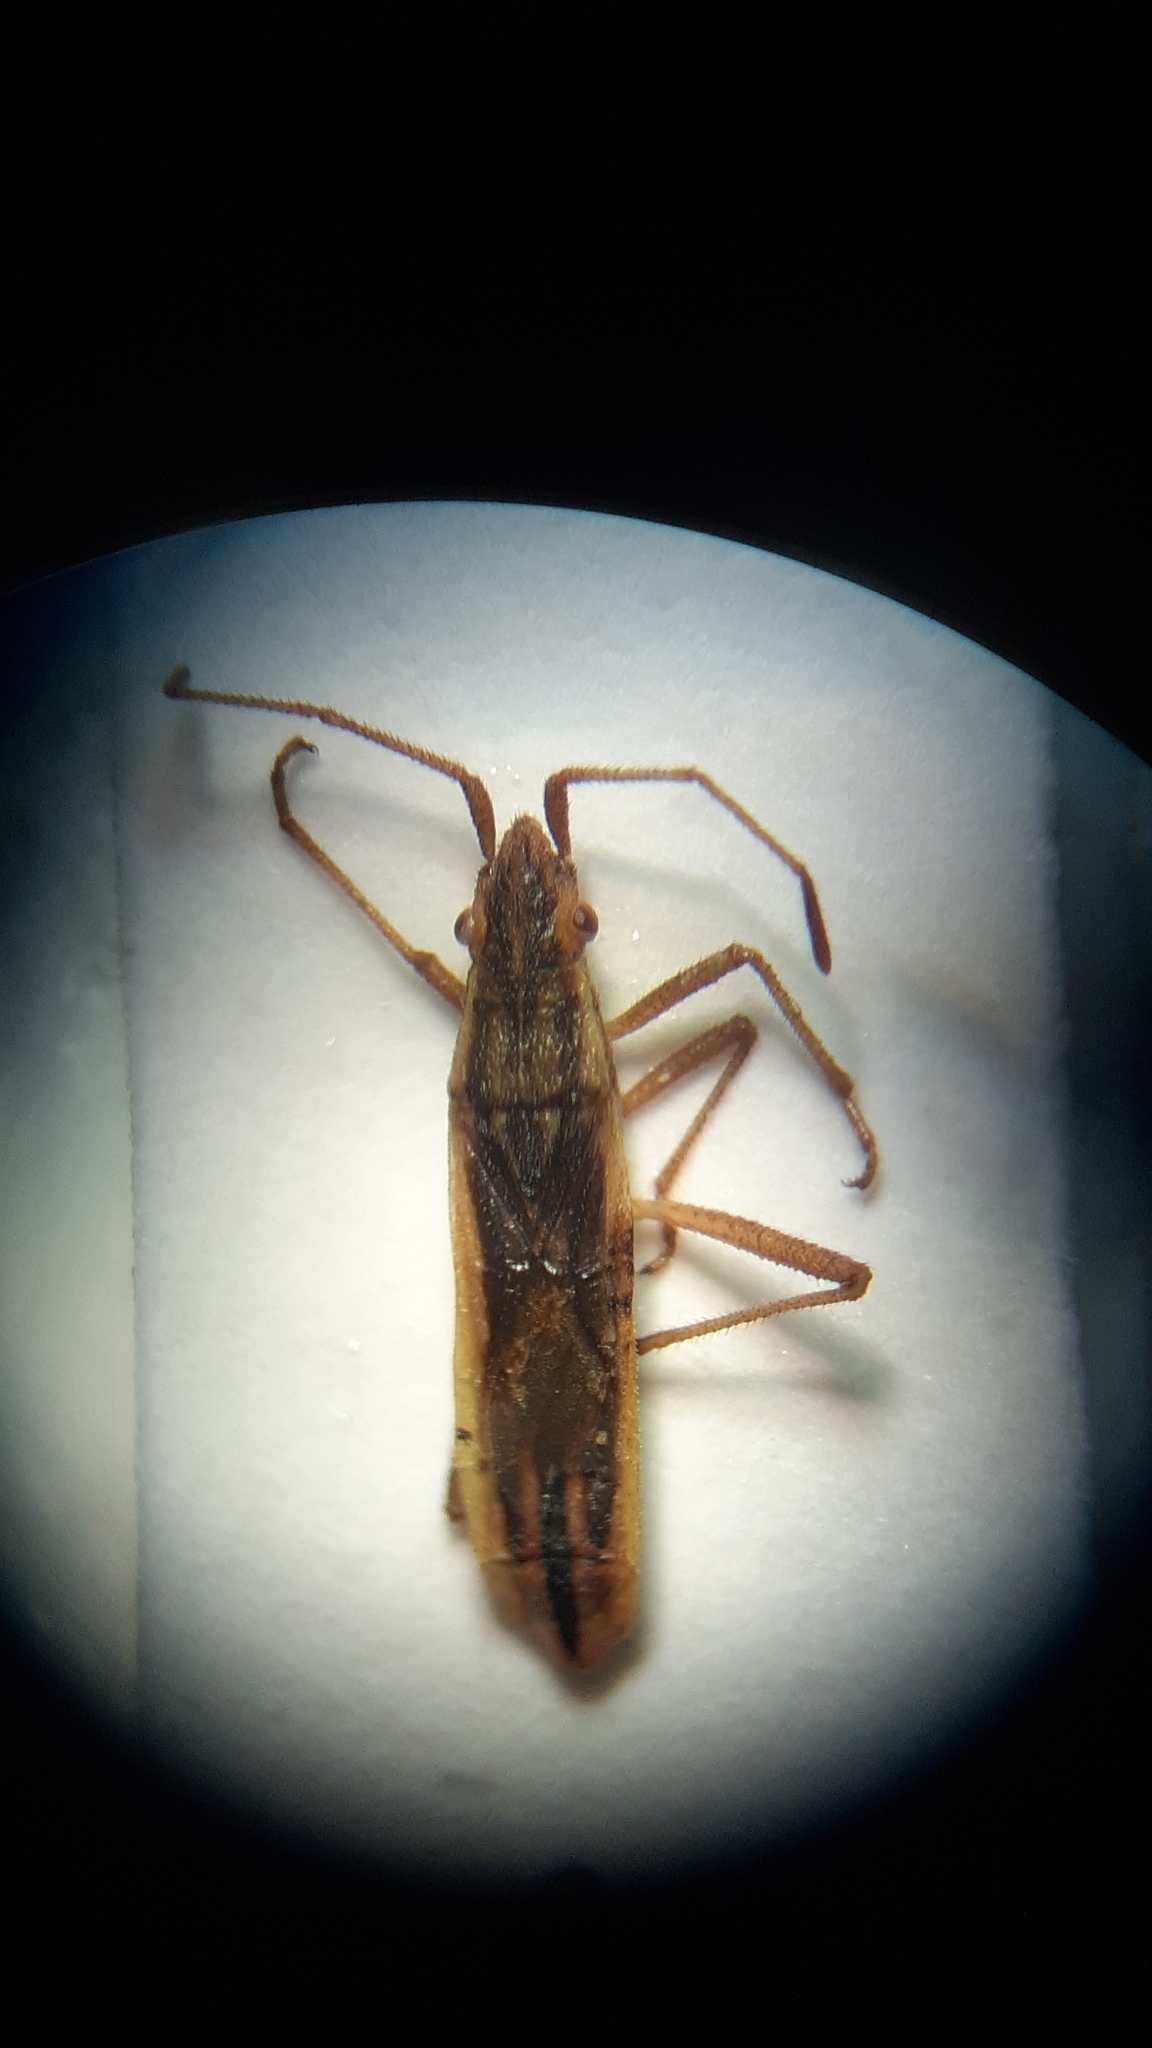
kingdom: Animalia
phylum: Arthropoda
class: Insecta
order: Hemiptera
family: Rhopalidae
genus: Myrmus
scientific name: Myrmus miriformis
